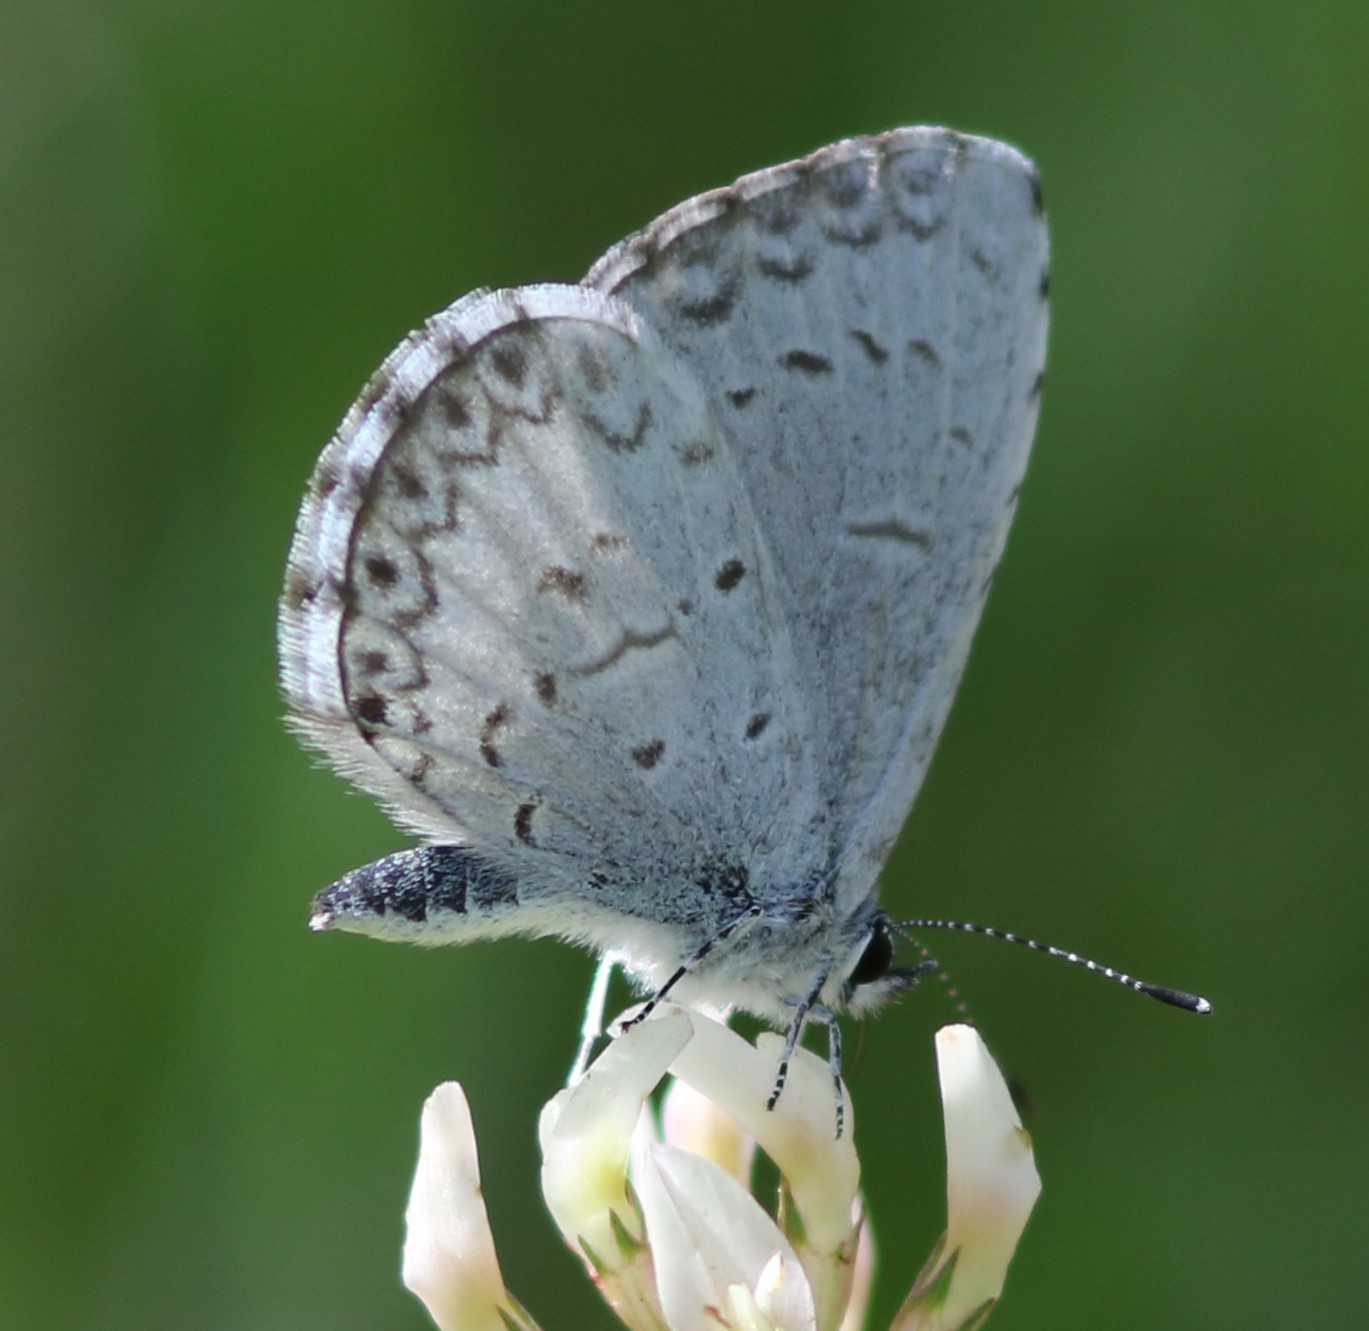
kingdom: Animalia
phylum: Arthropoda
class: Insecta
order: Lepidoptera
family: Lycaenidae
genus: Celastrina
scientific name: Celastrina lucia
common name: Lucia azure
